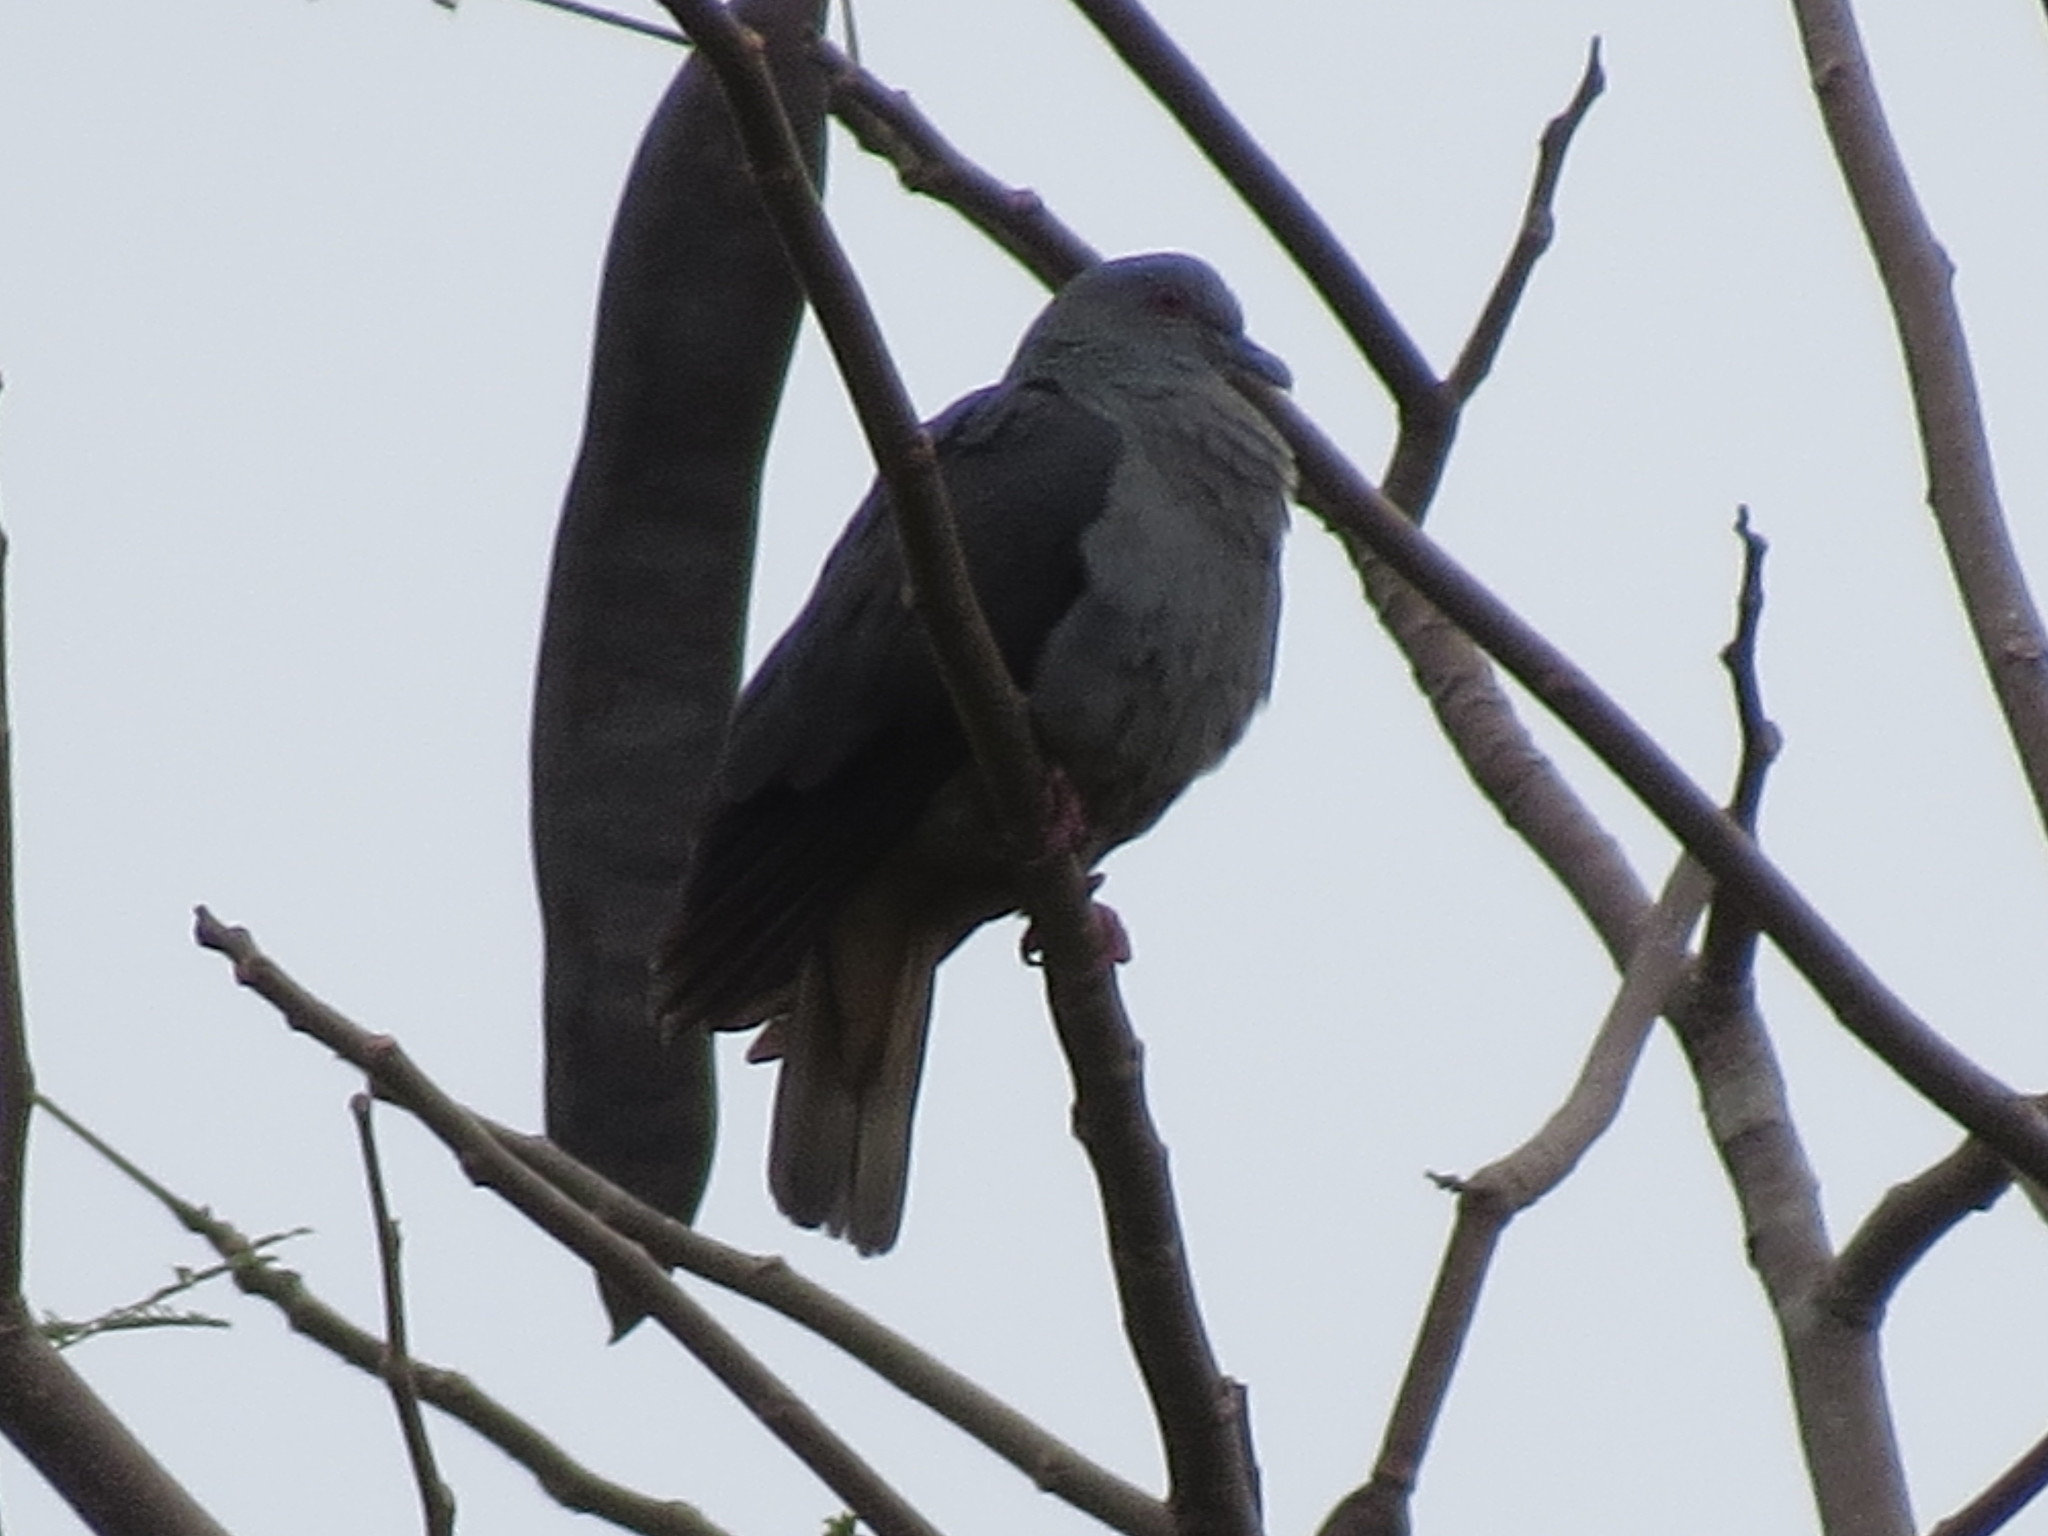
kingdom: Animalia
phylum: Chordata
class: Aves
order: Columbiformes
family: Columbidae
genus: Columba
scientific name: Columba malherbii
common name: Island bronze-naped pigeon
